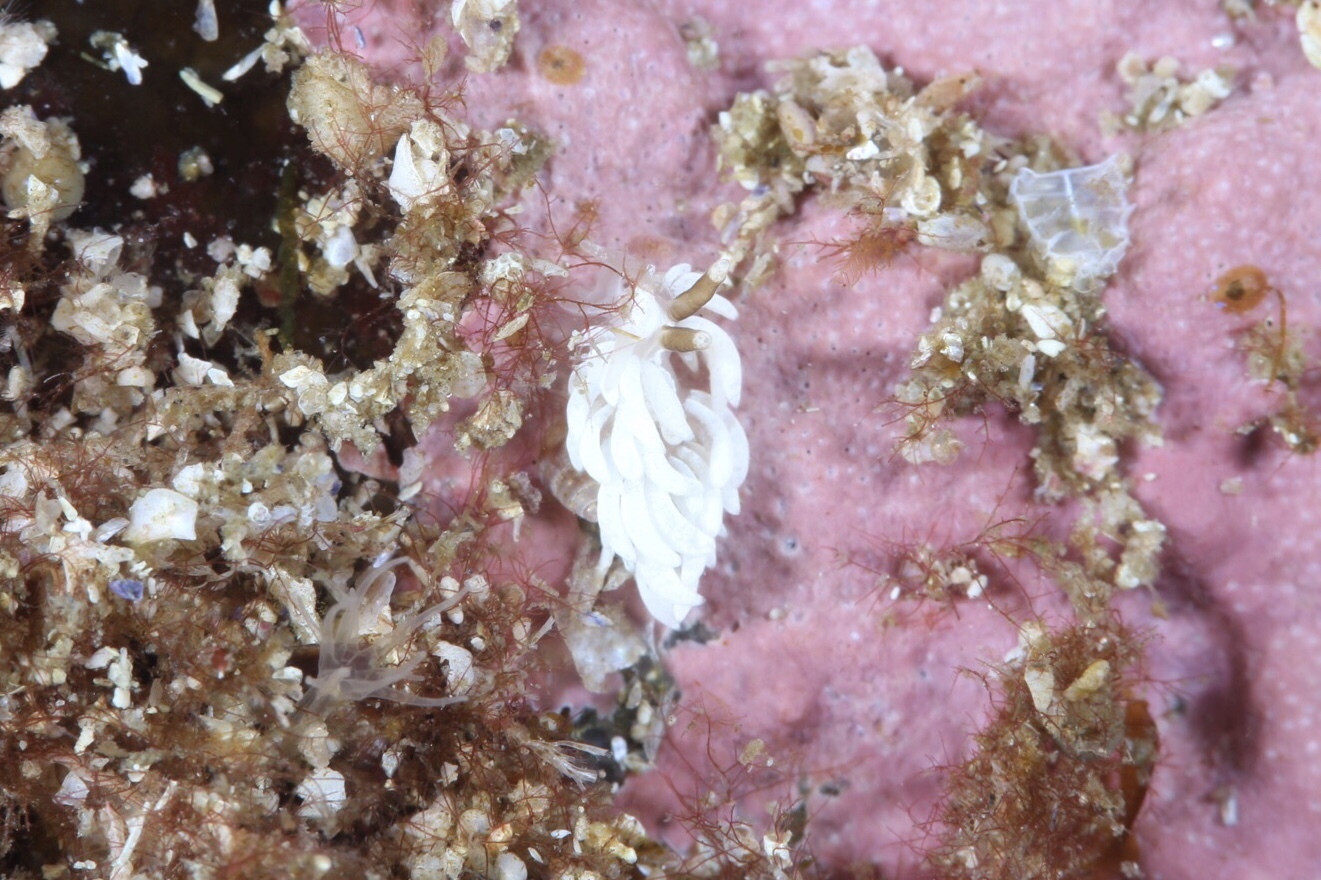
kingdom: Animalia
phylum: Mollusca
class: Gastropoda
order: Nudibranchia
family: Facelinidae
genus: Favorinus
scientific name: Favorinus branchialis
